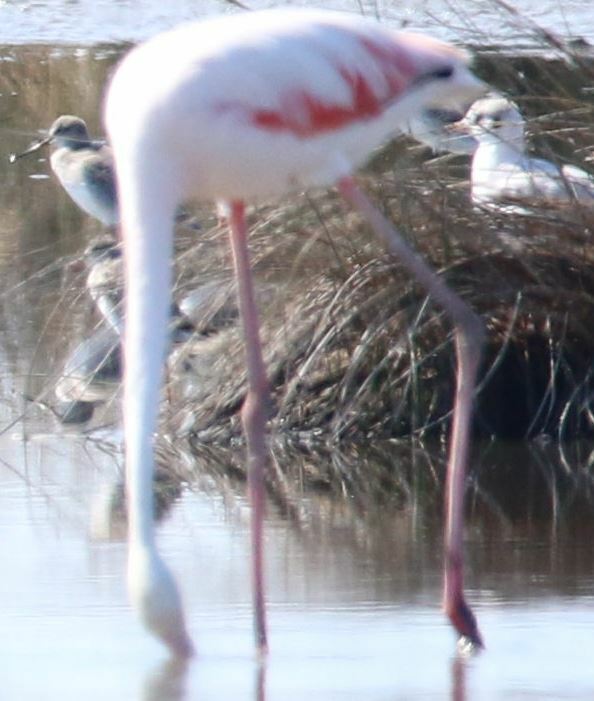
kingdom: Animalia
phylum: Chordata
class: Aves
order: Phoenicopteriformes
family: Phoenicopteridae
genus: Phoenicopterus
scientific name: Phoenicopterus roseus
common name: Greater flamingo
